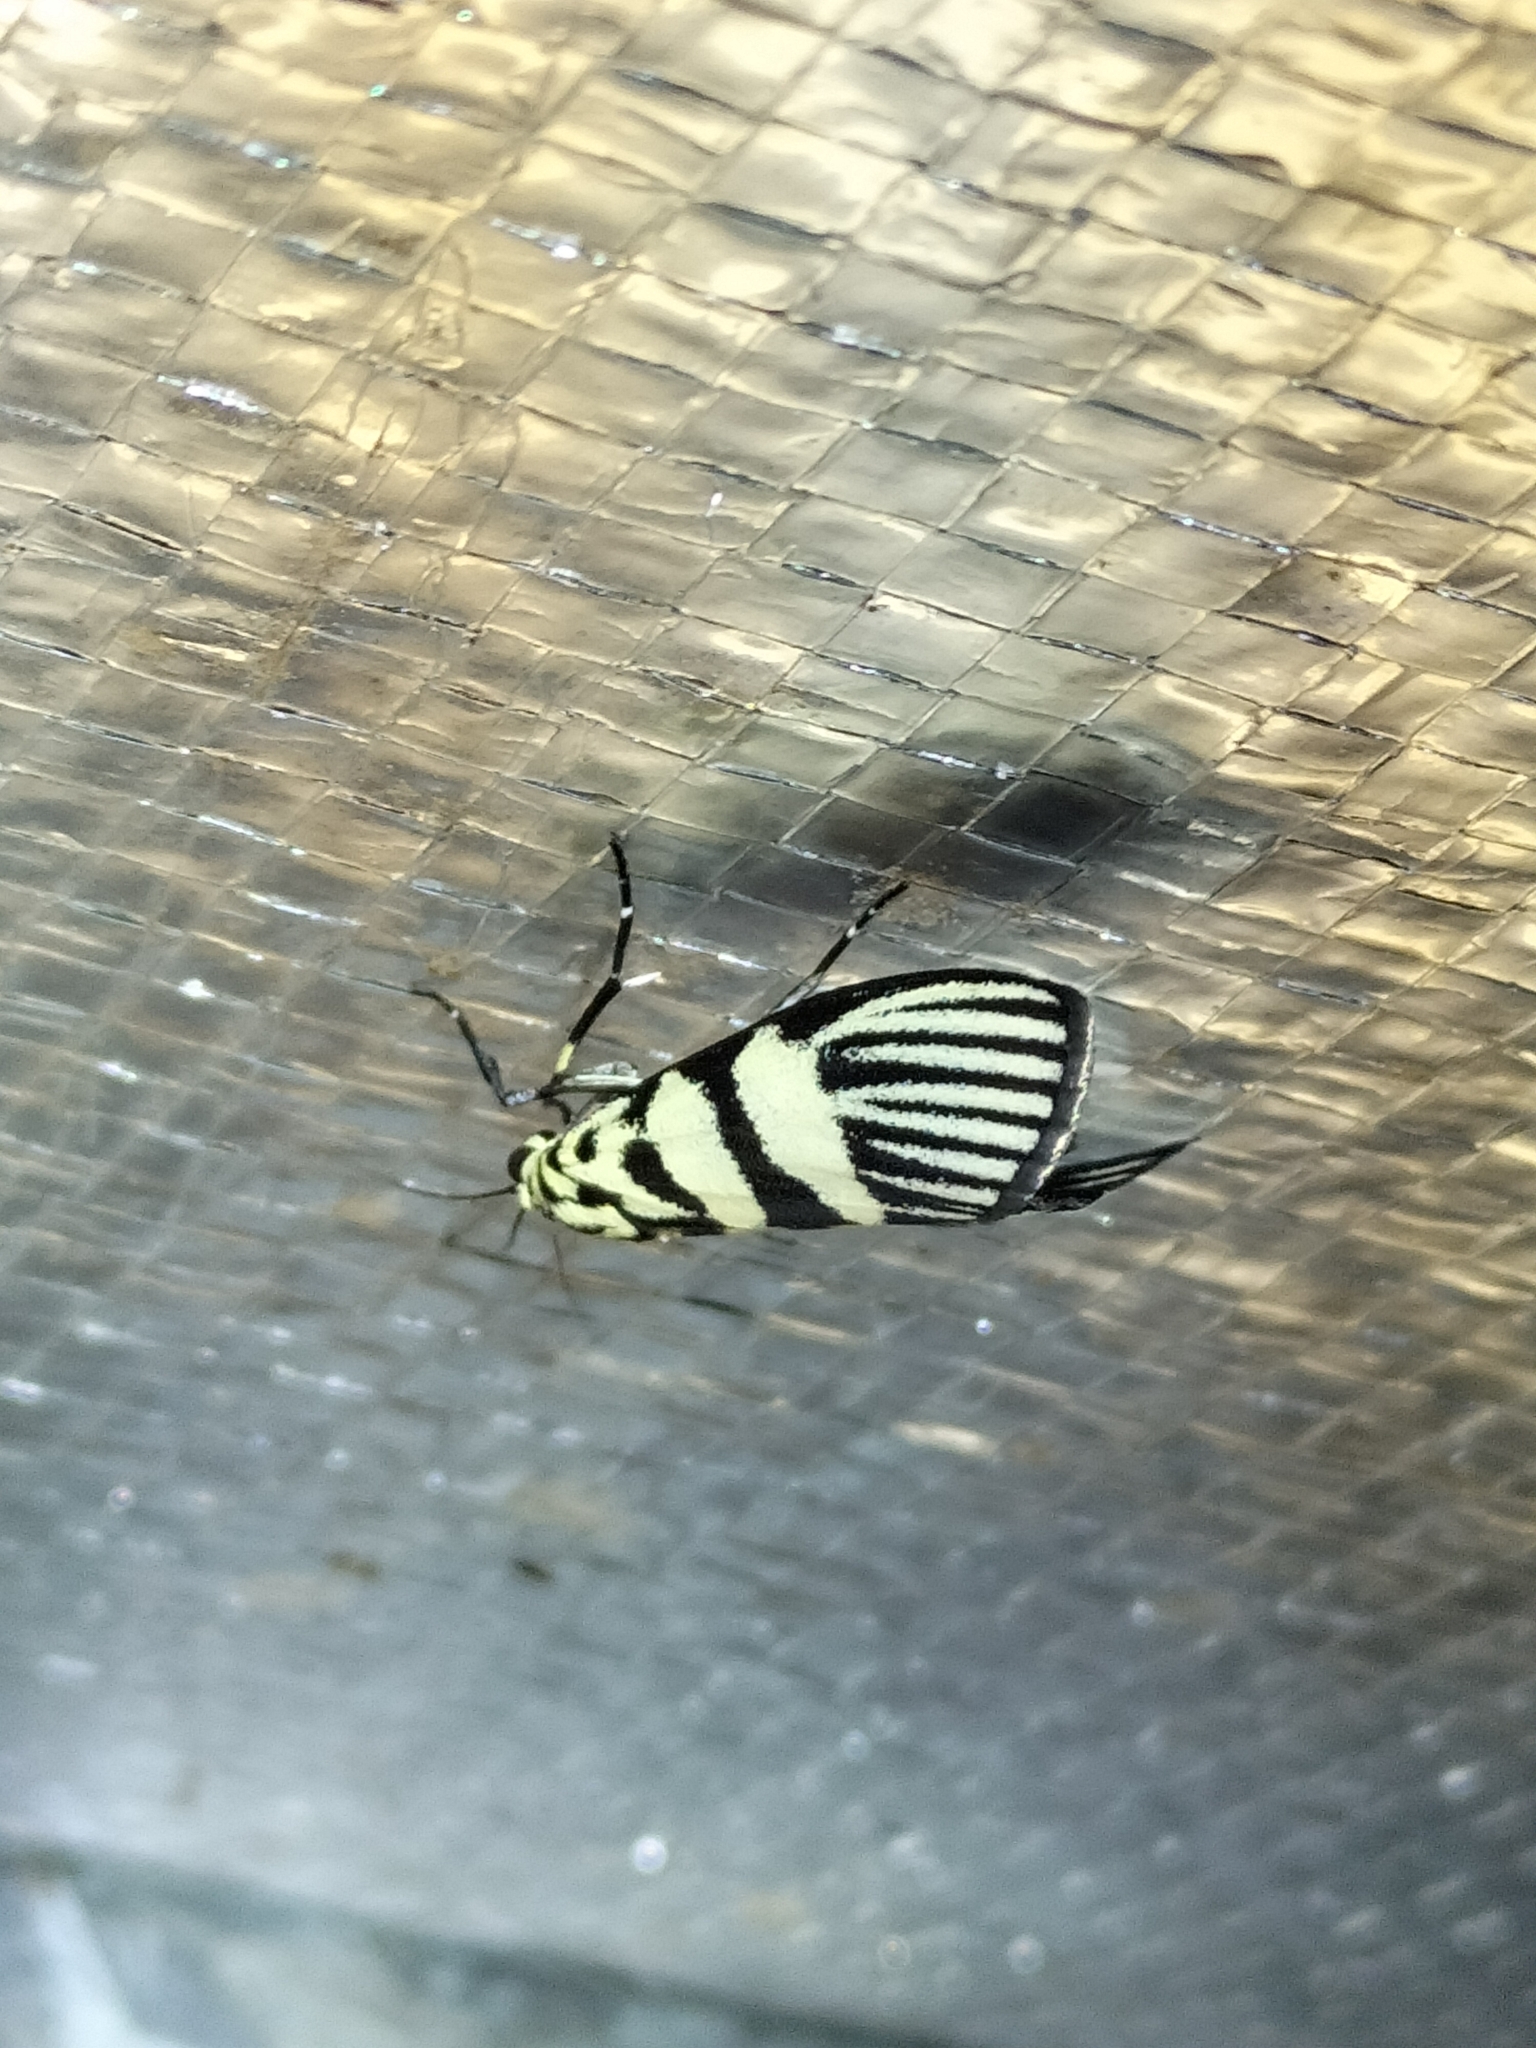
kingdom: Animalia
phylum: Arthropoda
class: Insecta
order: Lepidoptera
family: Crambidae
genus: Heortia
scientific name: Heortia vitessoides
